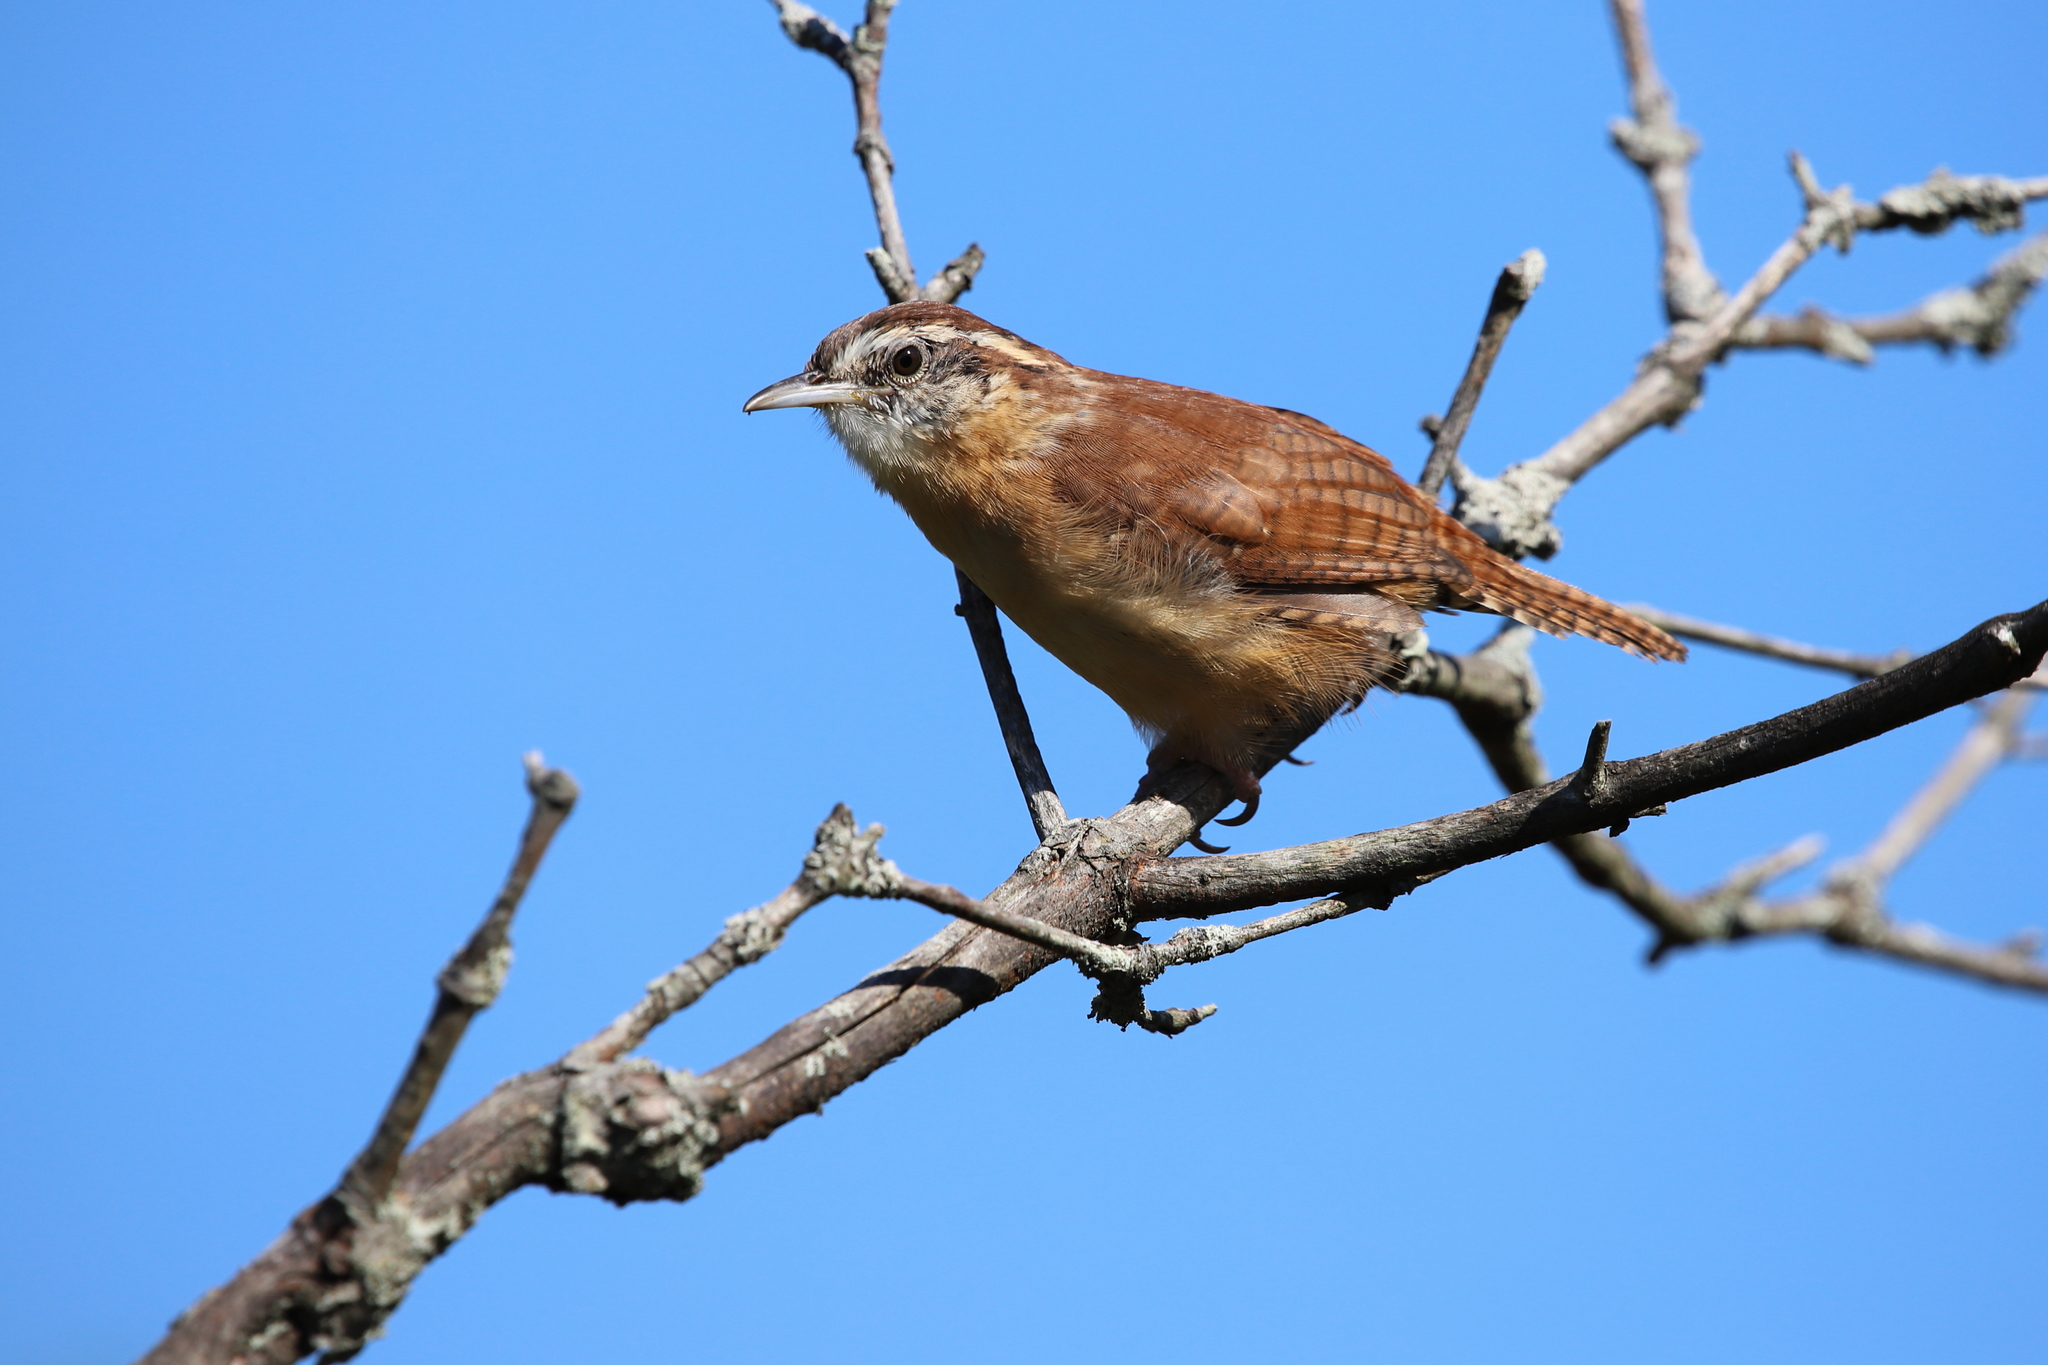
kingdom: Animalia
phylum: Chordata
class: Aves
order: Passeriformes
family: Troglodytidae
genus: Thryothorus
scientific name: Thryothorus ludovicianus
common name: Carolina wren
